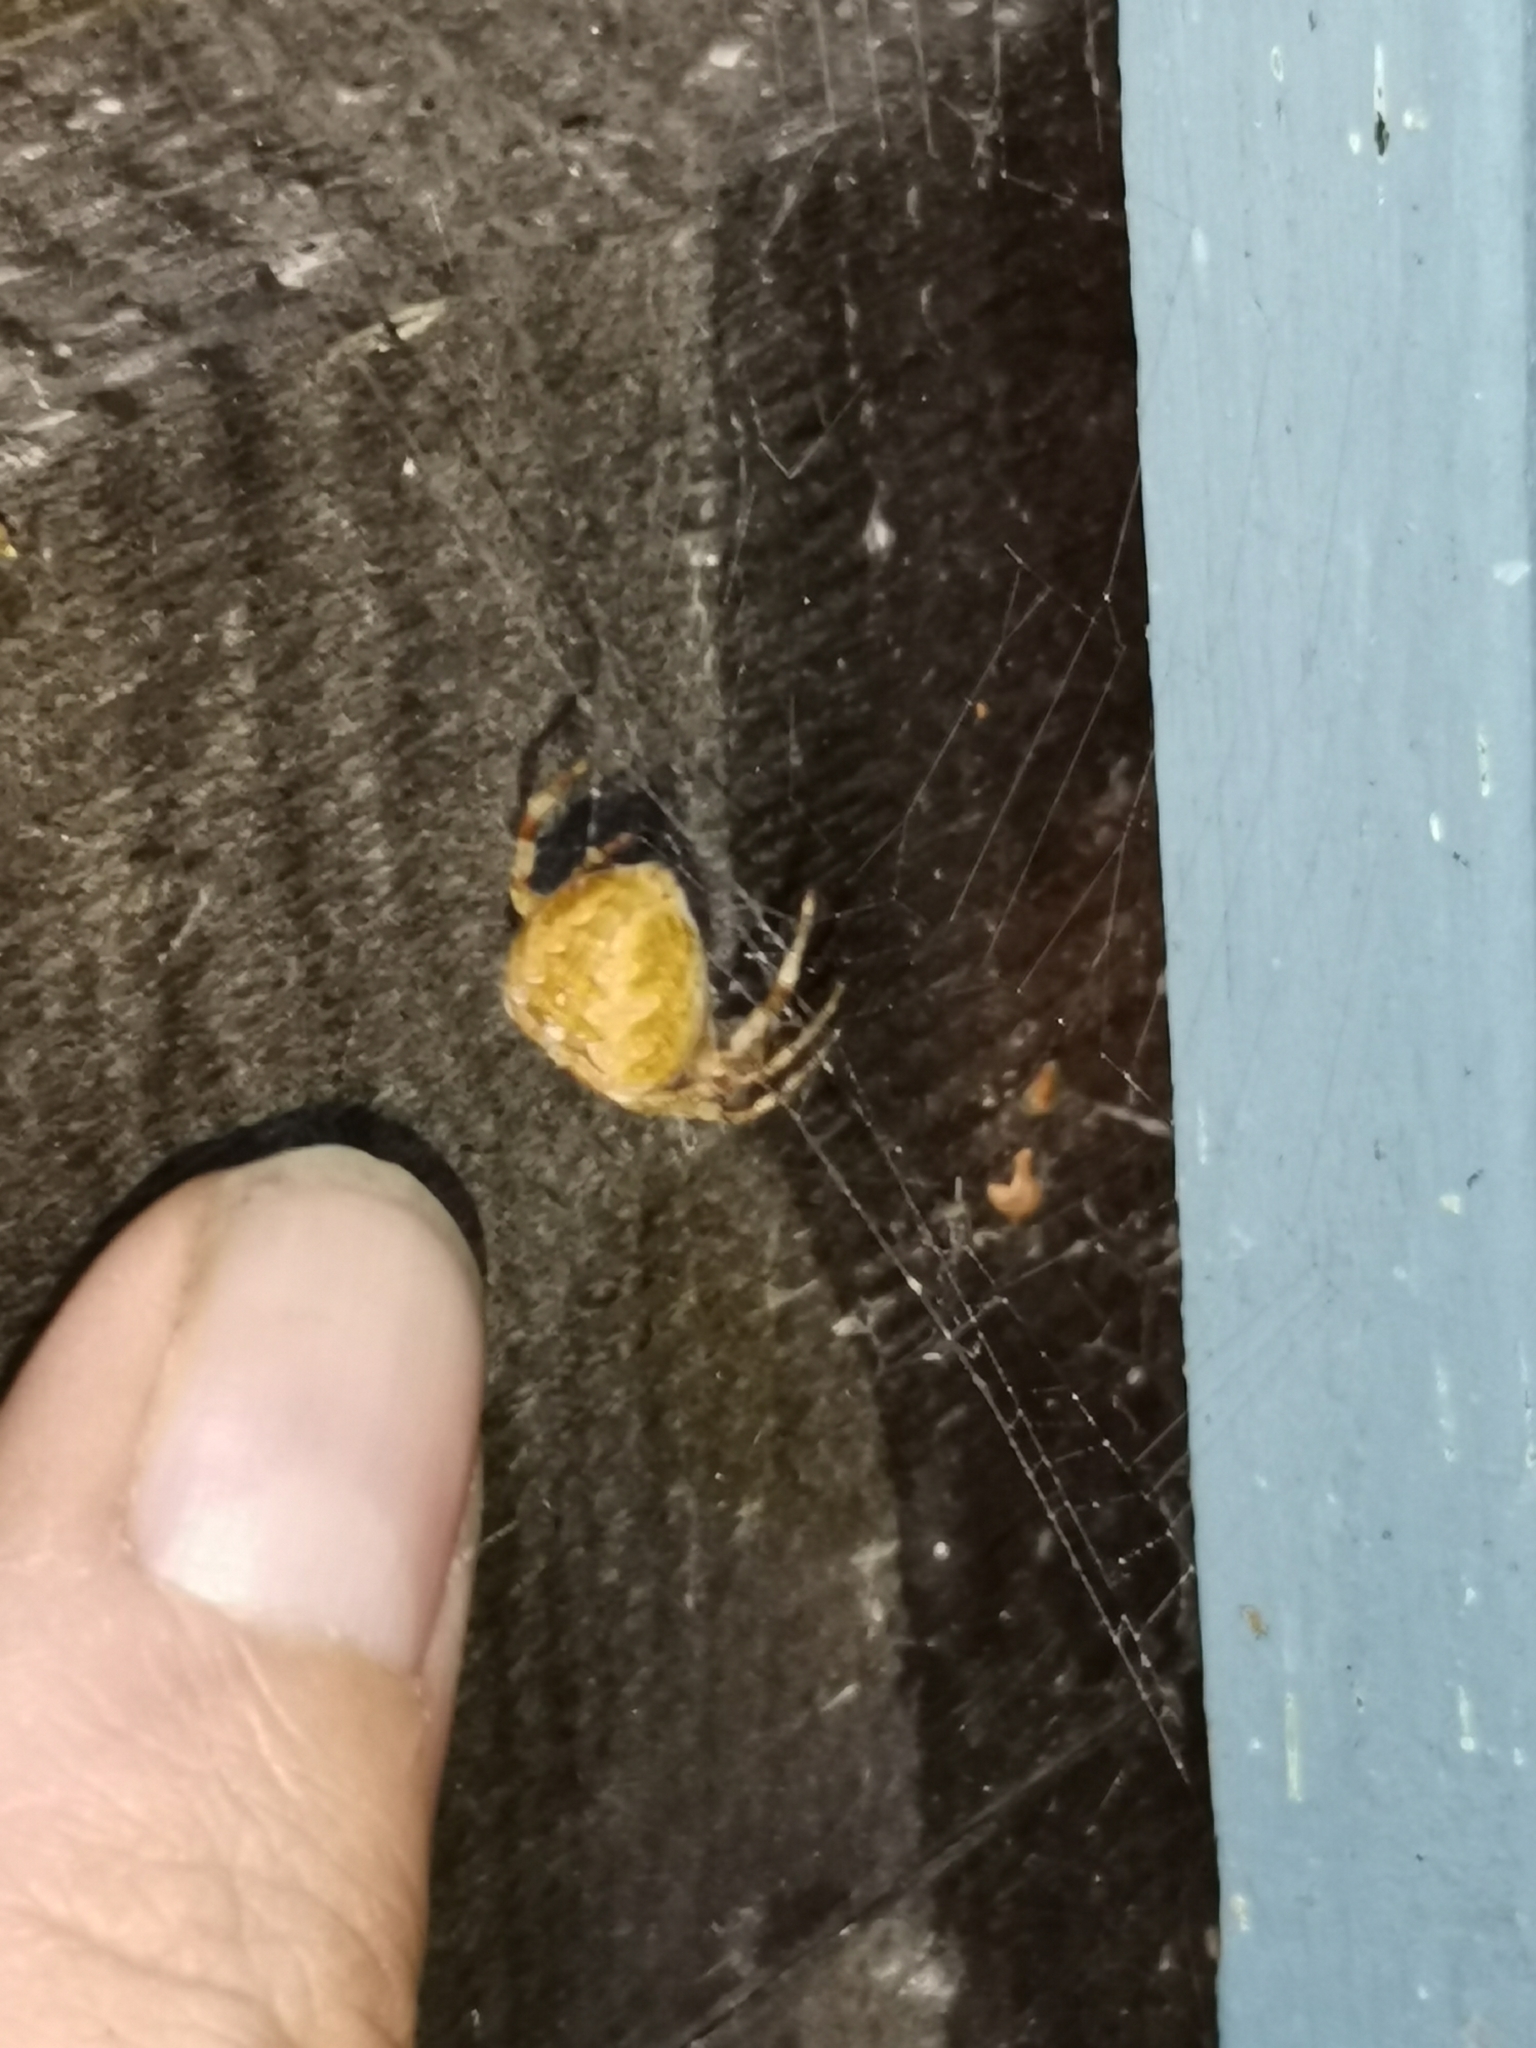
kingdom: Animalia
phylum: Arthropoda
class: Arachnida
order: Araneae
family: Araneidae
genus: Araneus
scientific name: Araneus diadematus
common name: Cross orbweaver
